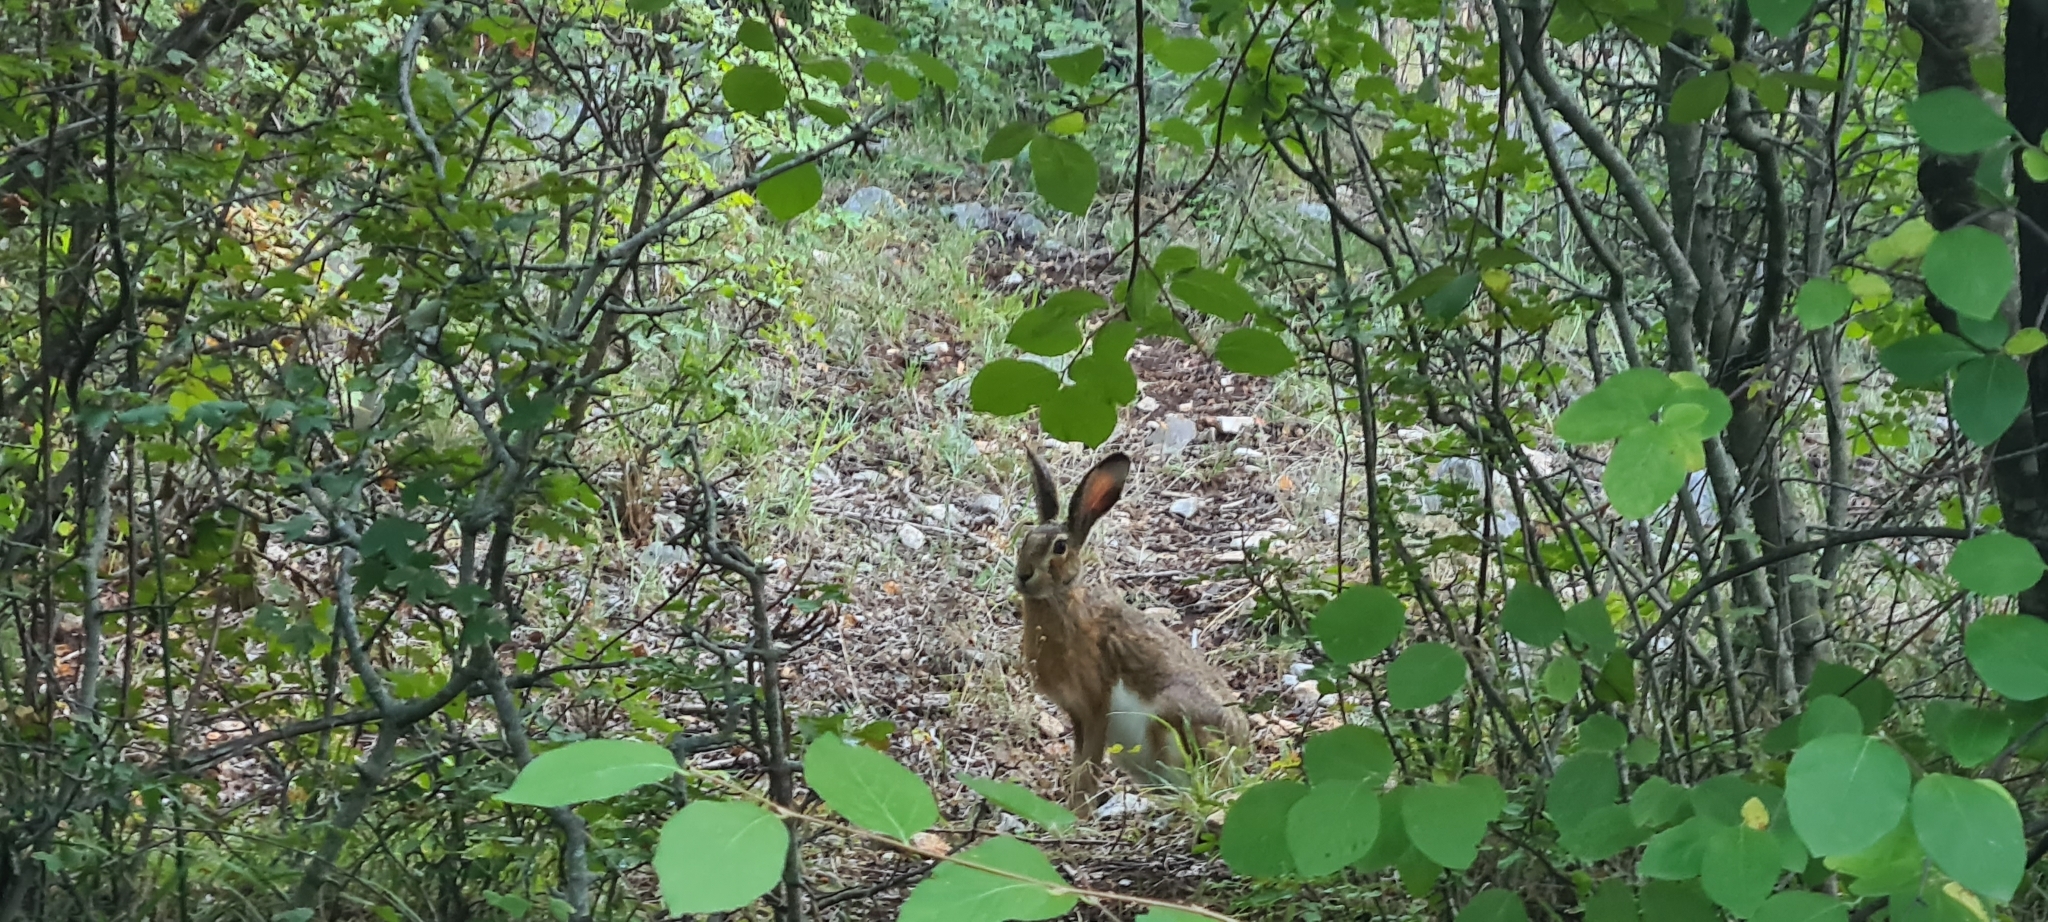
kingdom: Animalia
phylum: Chordata
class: Mammalia
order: Lagomorpha
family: Leporidae
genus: Lepus
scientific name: Lepus corsicanus
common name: Corsican hare
